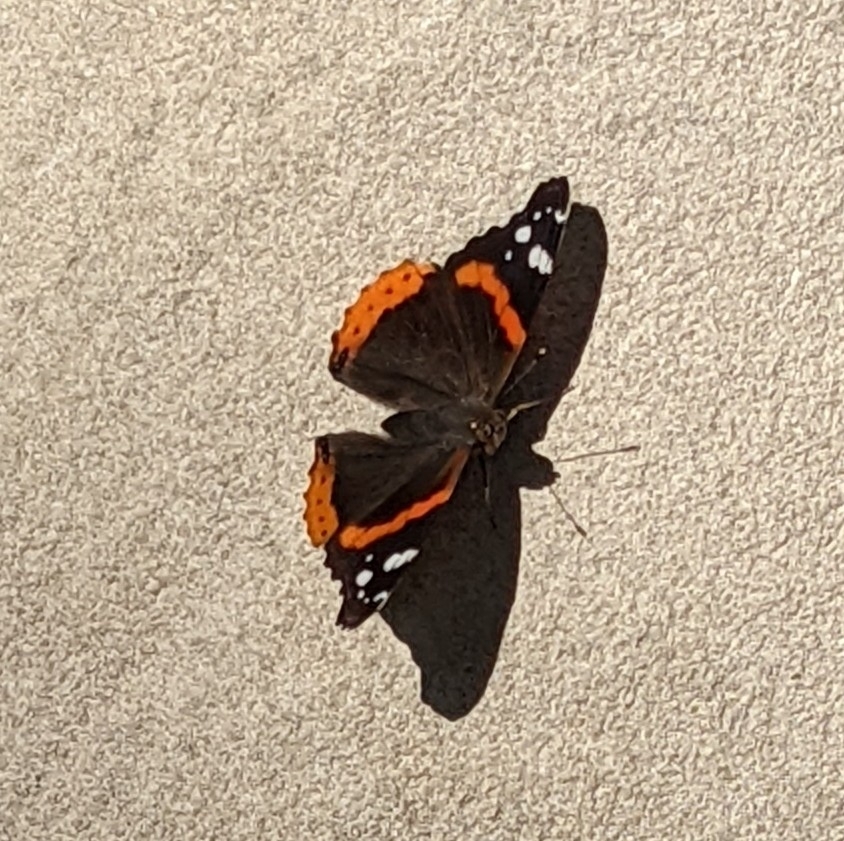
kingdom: Animalia
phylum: Arthropoda
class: Insecta
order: Lepidoptera
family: Nymphalidae
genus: Vanessa
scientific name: Vanessa atalanta
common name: Red admiral
